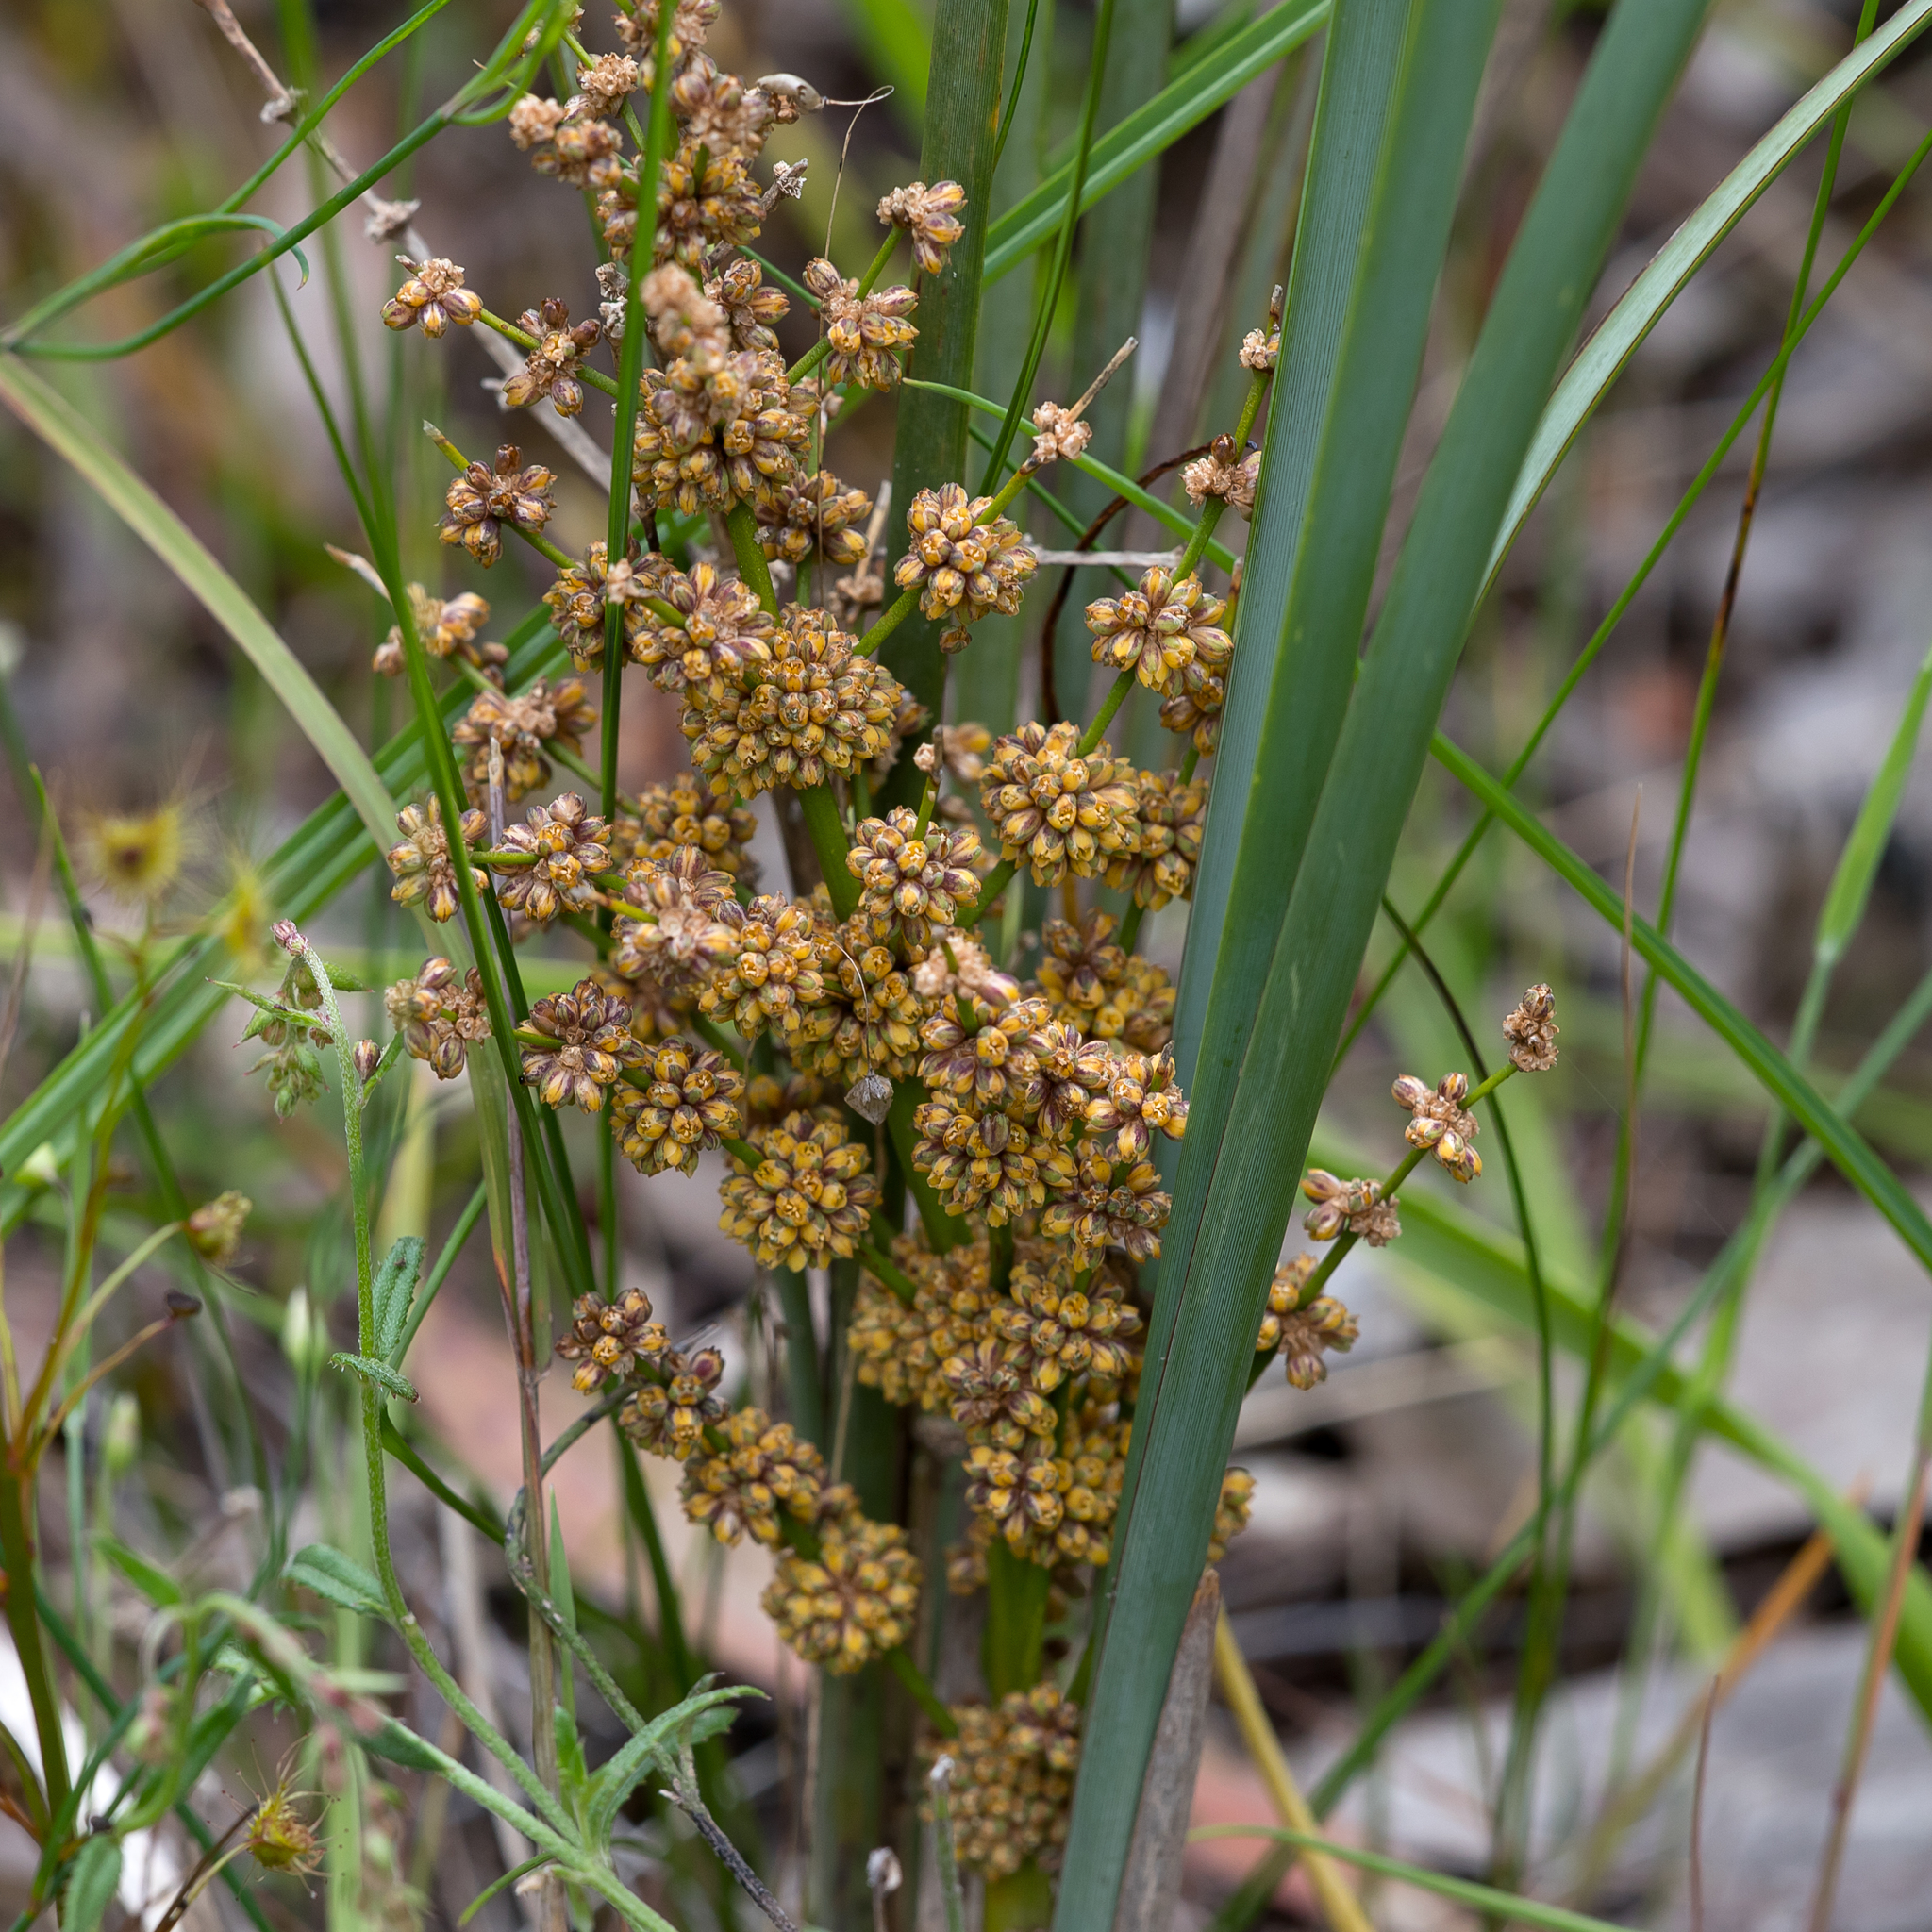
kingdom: Plantae
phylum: Tracheophyta
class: Liliopsida
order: Asparagales
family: Asparagaceae
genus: Lomandra
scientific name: Lomandra multiflora
